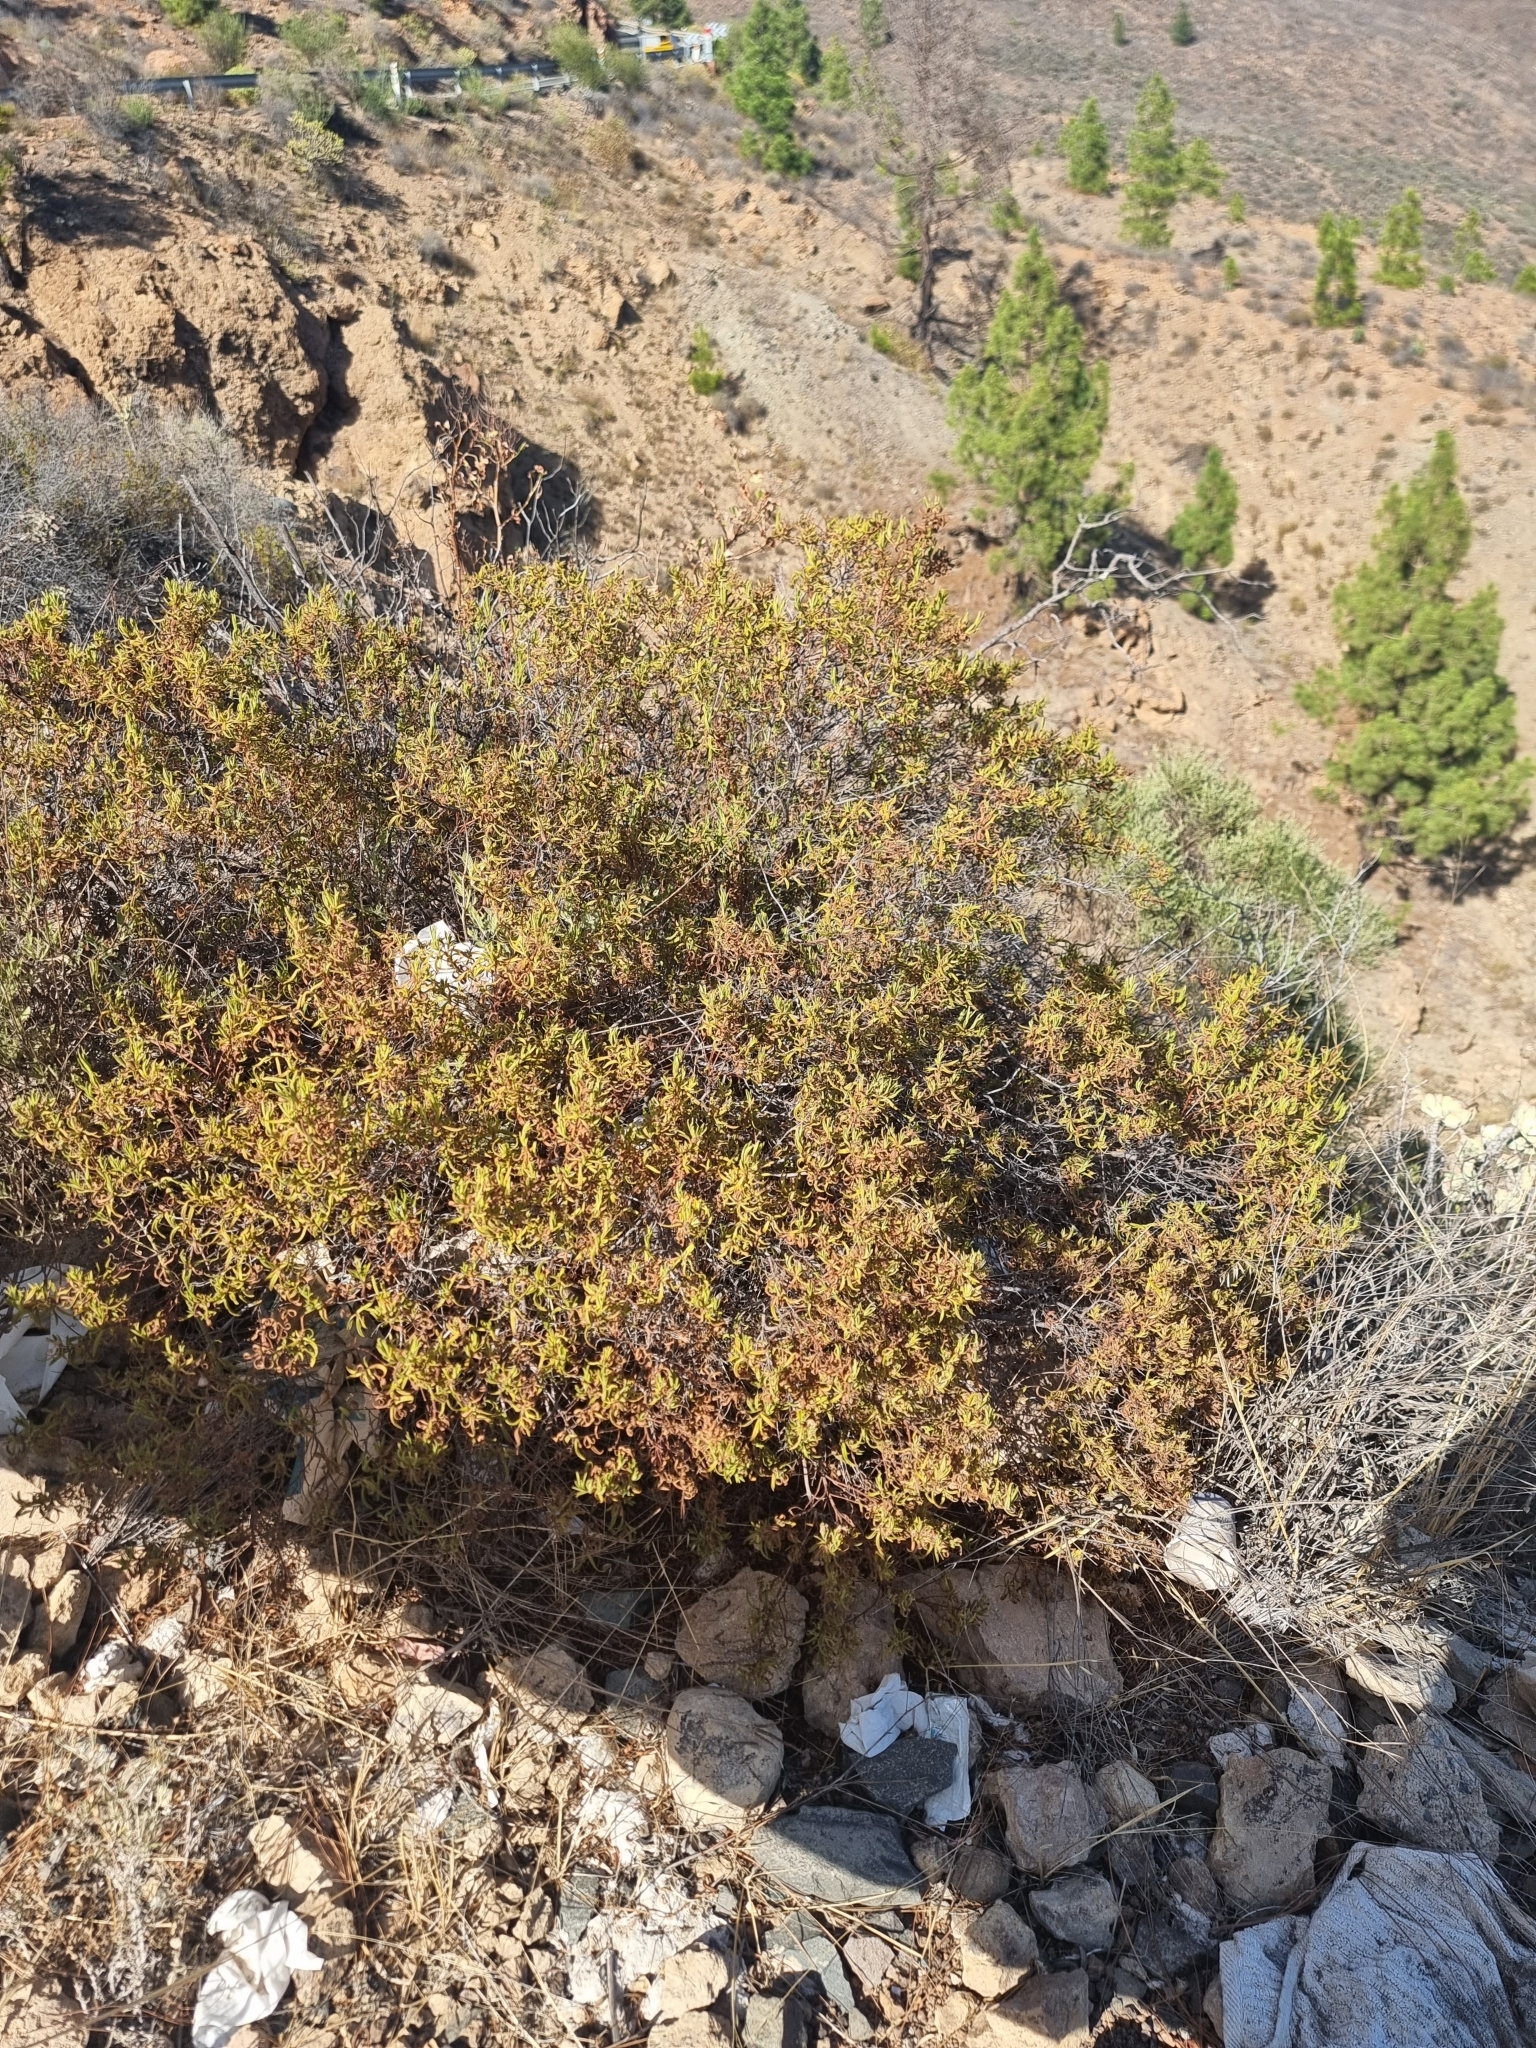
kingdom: Plantae
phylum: Tracheophyta
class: Magnoliopsida
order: Malvales
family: Cistaceae
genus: Cistus
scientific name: Cistus monspeliensis
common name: Montpelier cistus
